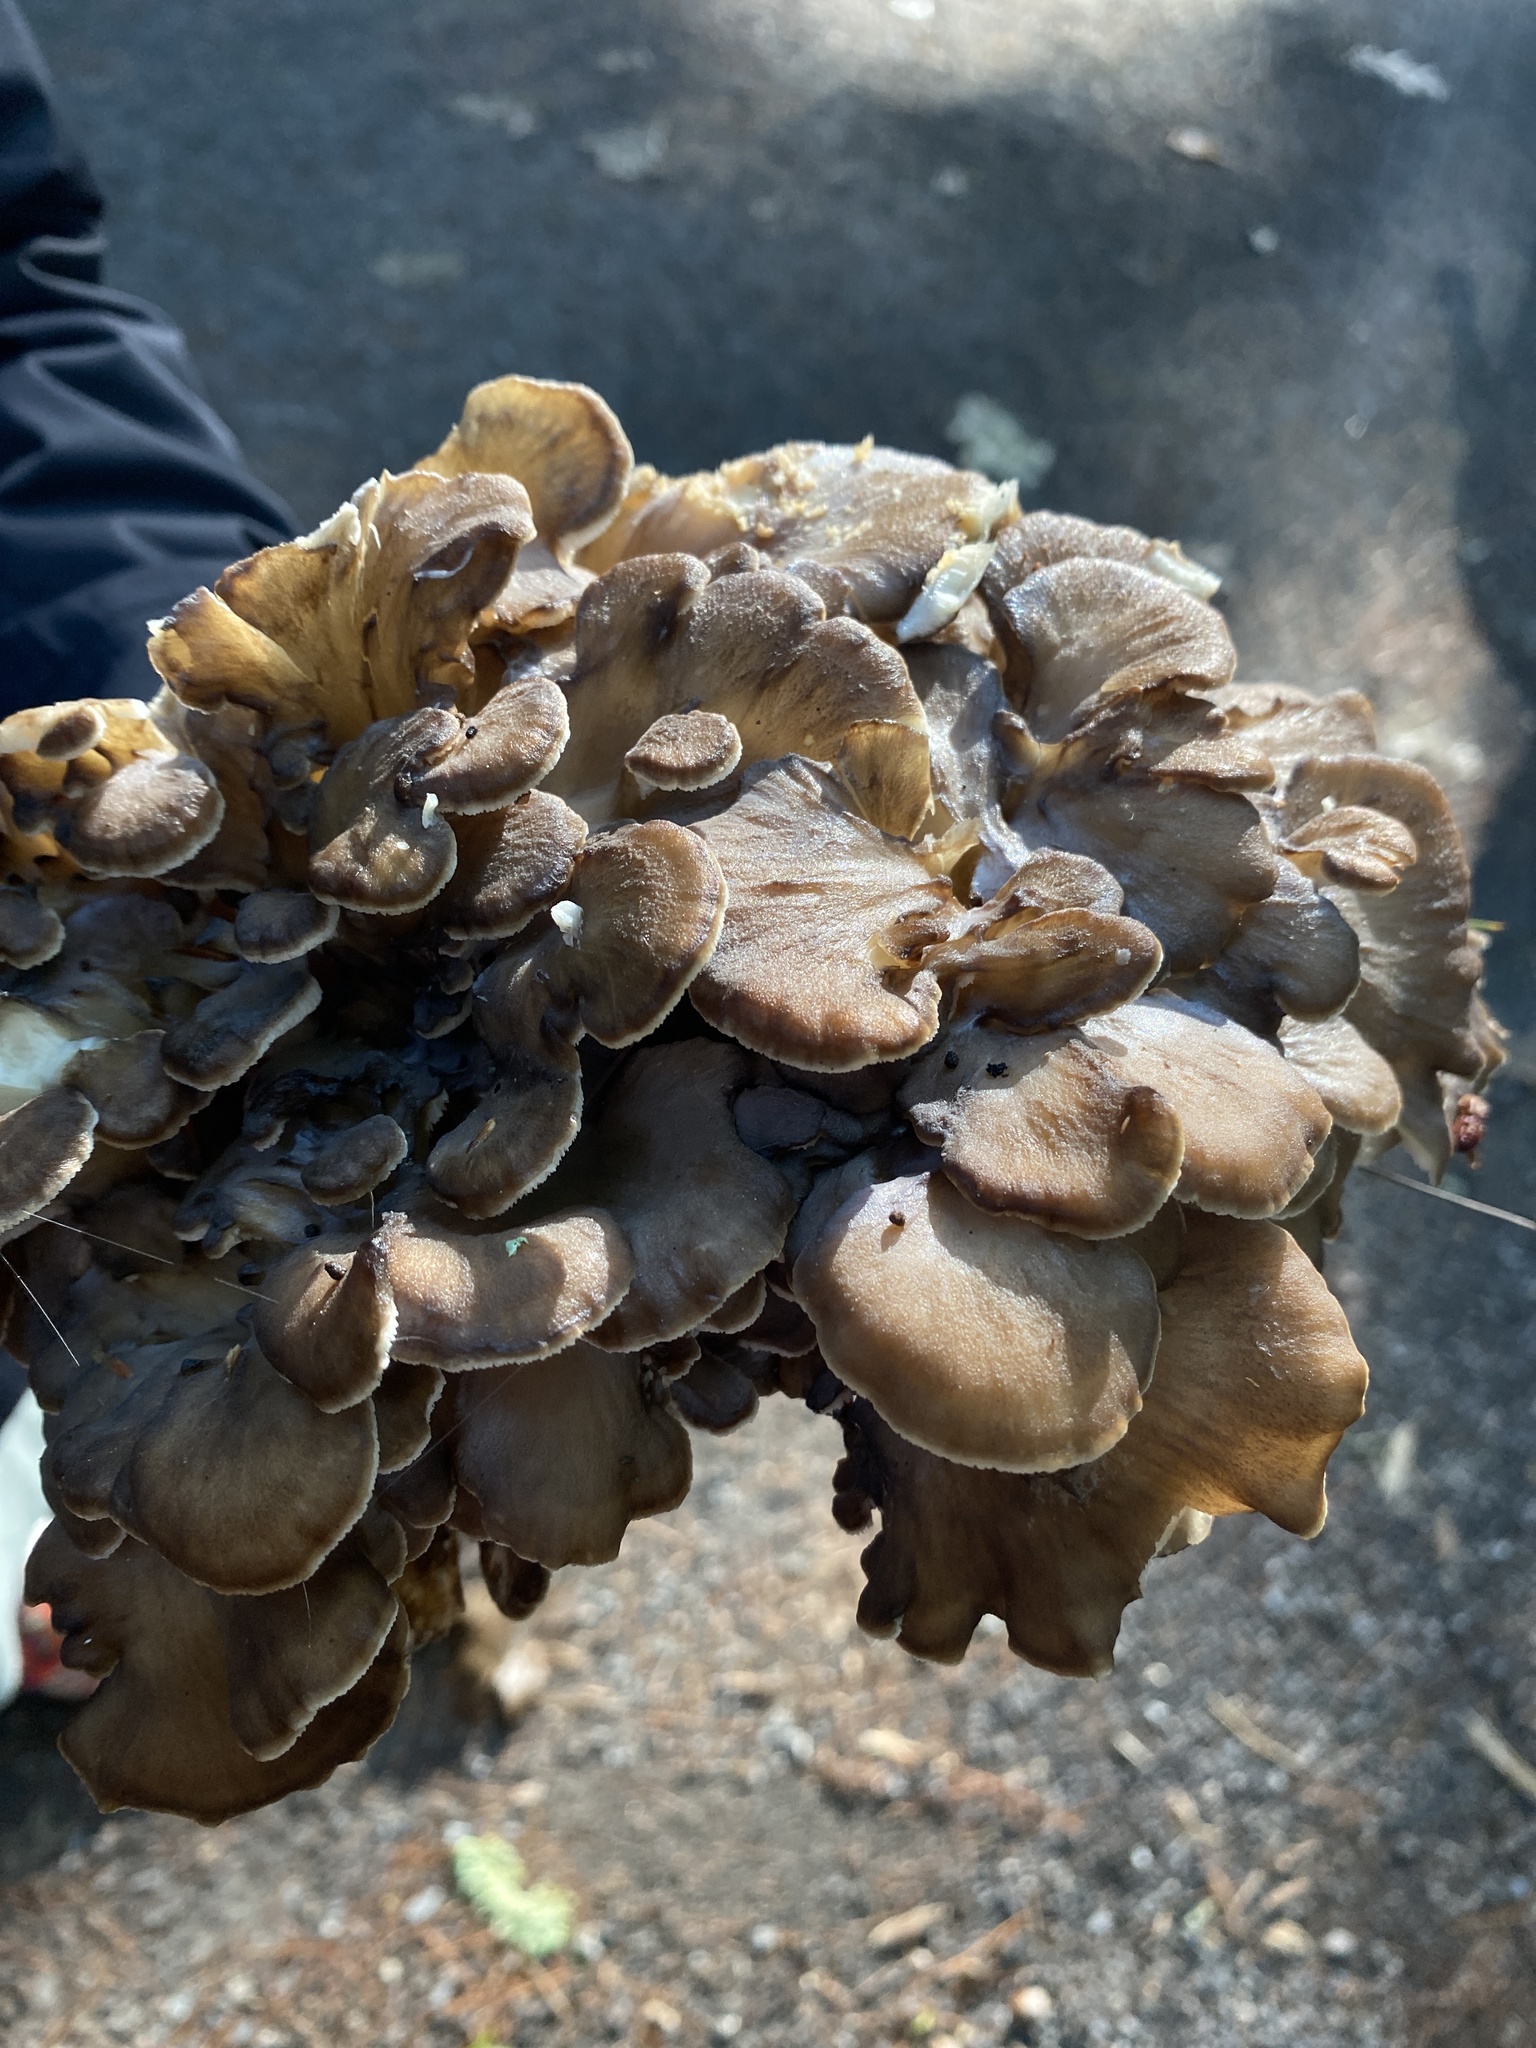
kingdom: Fungi
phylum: Basidiomycota
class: Agaricomycetes
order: Polyporales
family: Grifolaceae
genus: Grifola
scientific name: Grifola frondosa
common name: Hen of the woods
